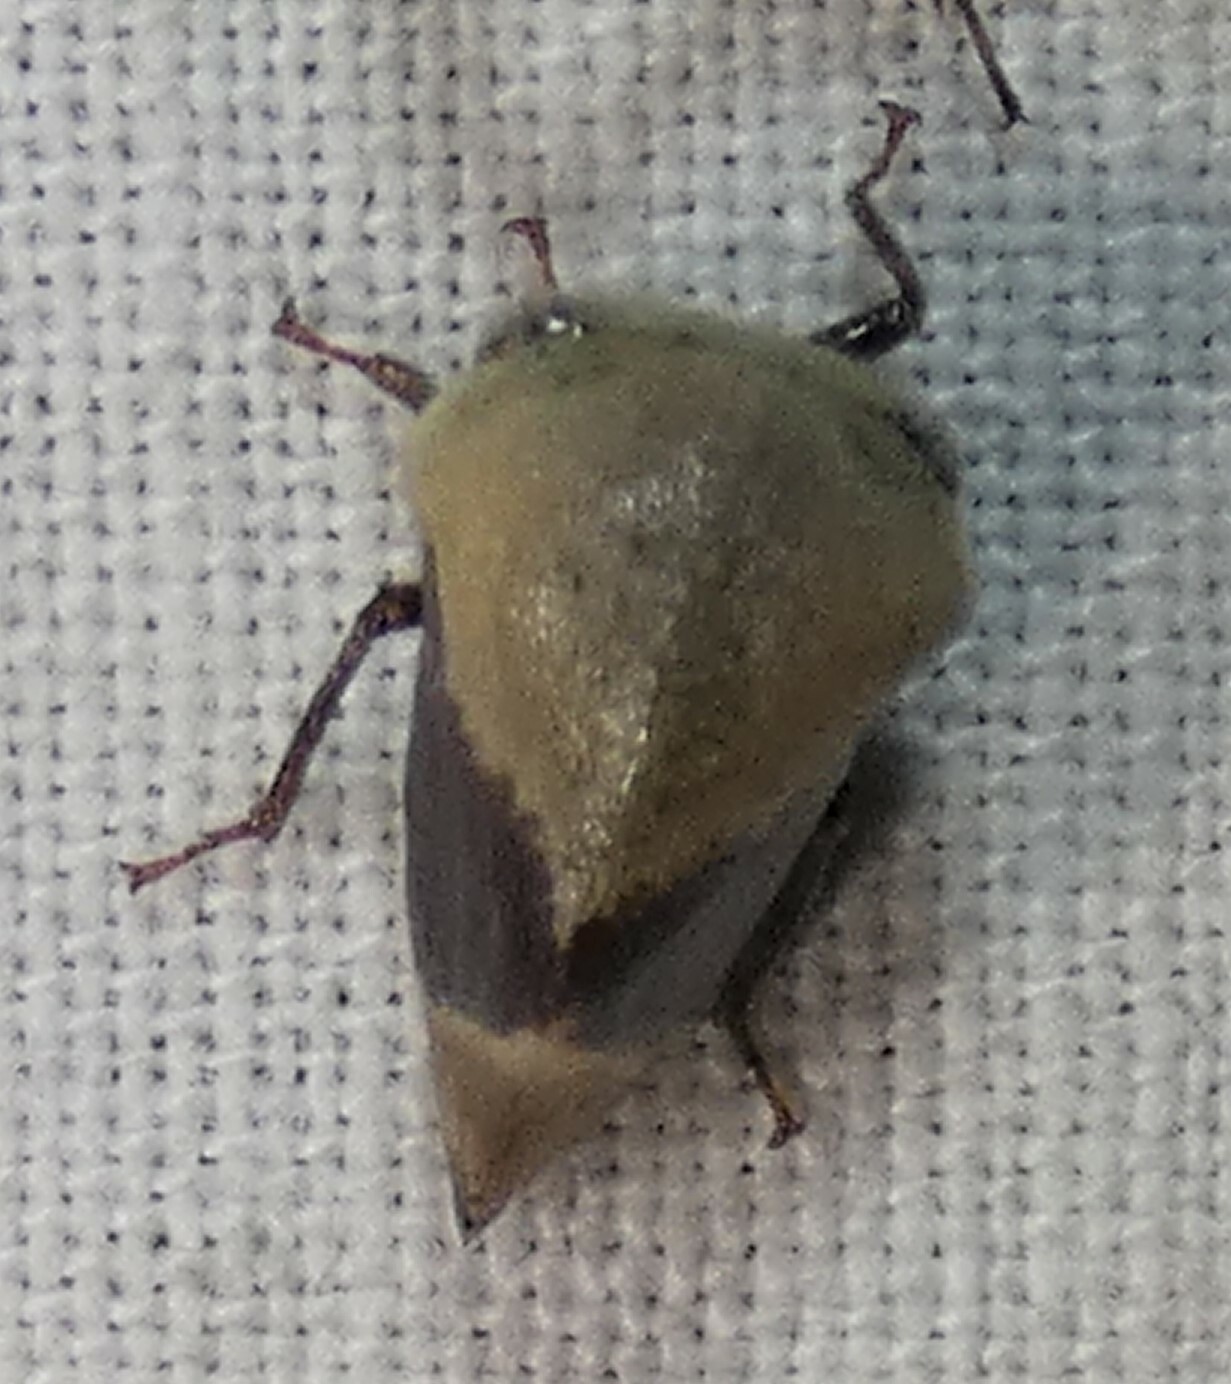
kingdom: Animalia
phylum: Arthropoda
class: Insecta
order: Hemiptera
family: Membracidae
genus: Carynota
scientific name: Carynota mera
